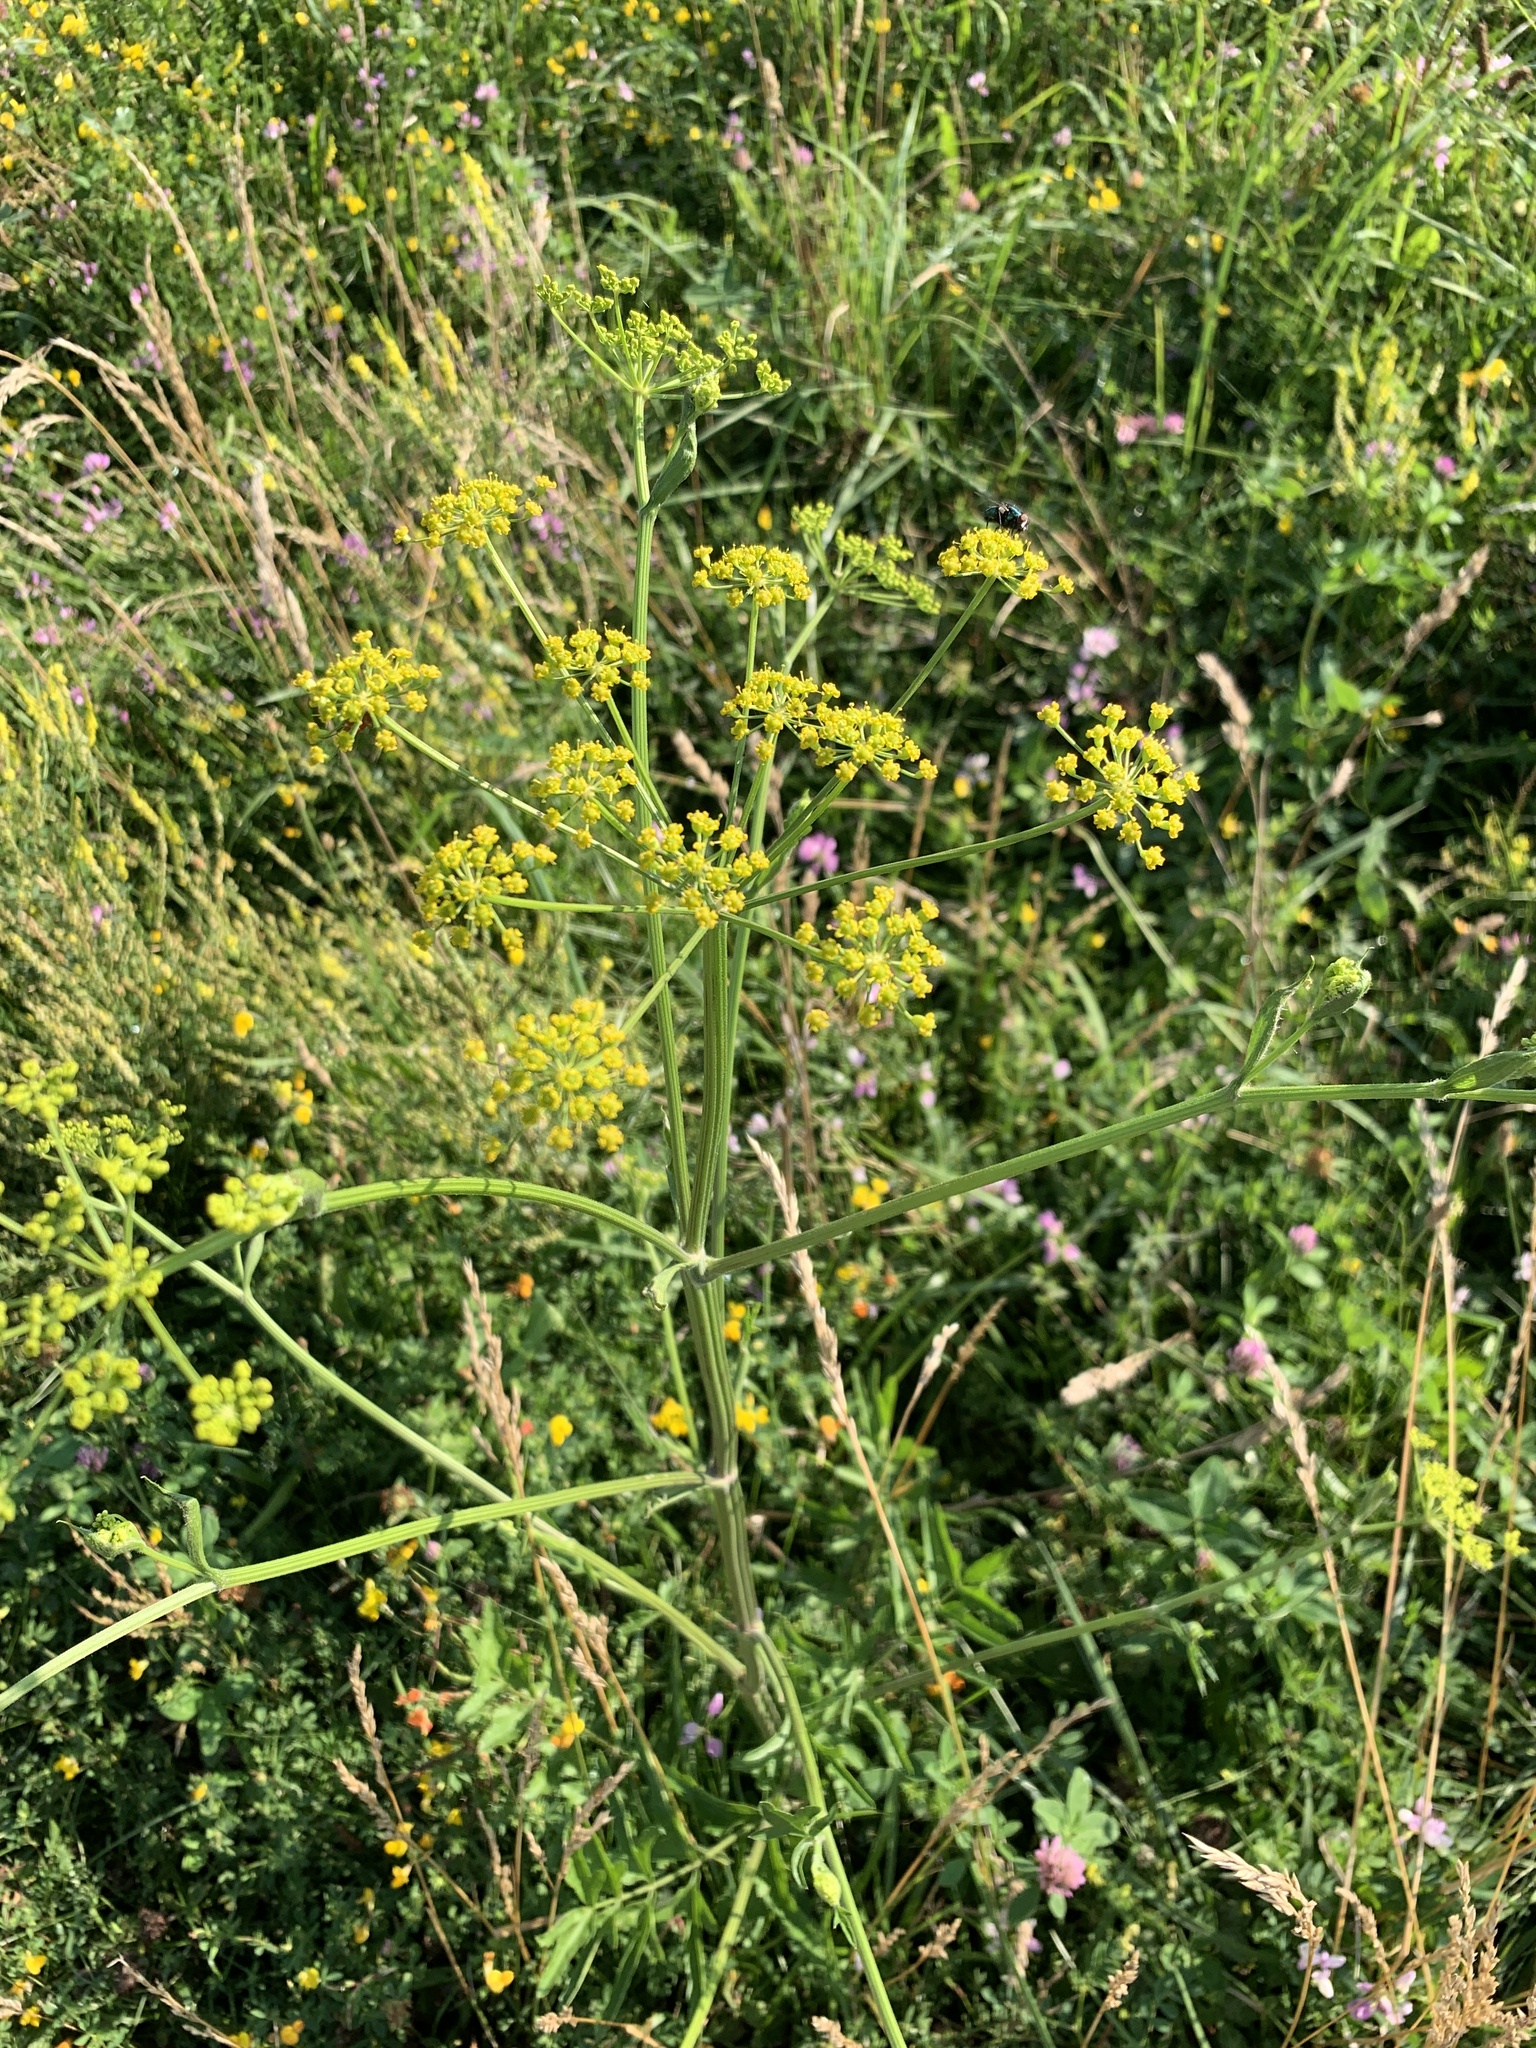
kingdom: Plantae
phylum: Tracheophyta
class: Magnoliopsida
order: Apiales
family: Apiaceae
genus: Pastinaca
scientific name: Pastinaca sativa
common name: Wild parsnip
